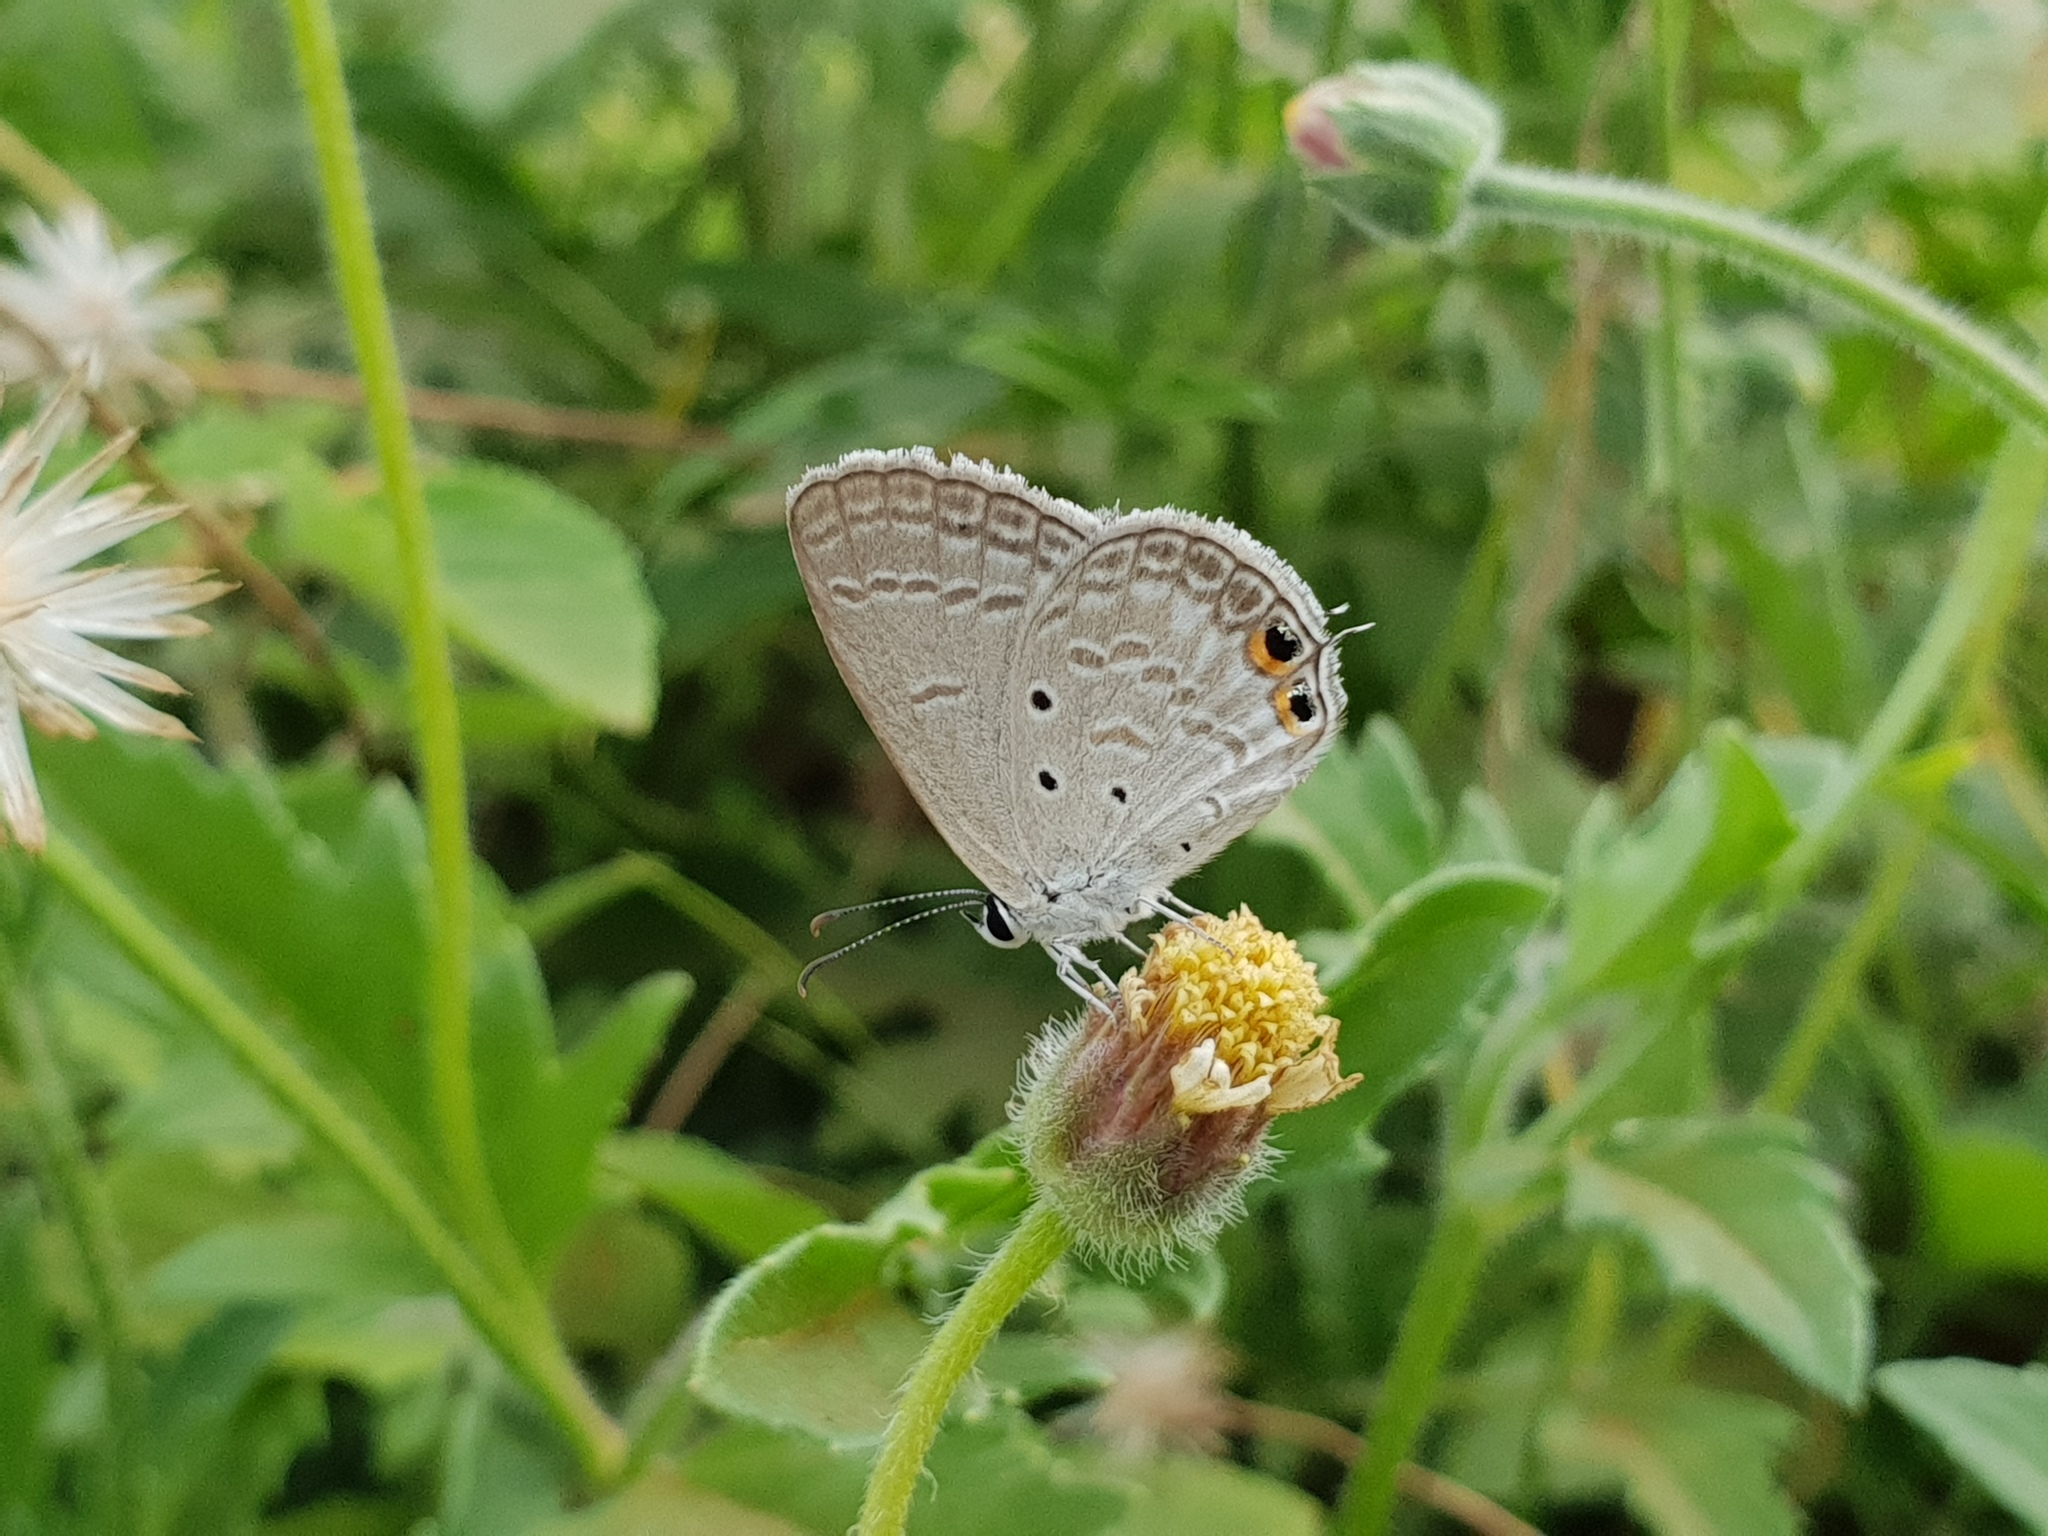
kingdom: Animalia
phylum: Arthropoda
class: Insecta
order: Lepidoptera
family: Lycaenidae
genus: Euchrysops
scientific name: Euchrysops cnejus
